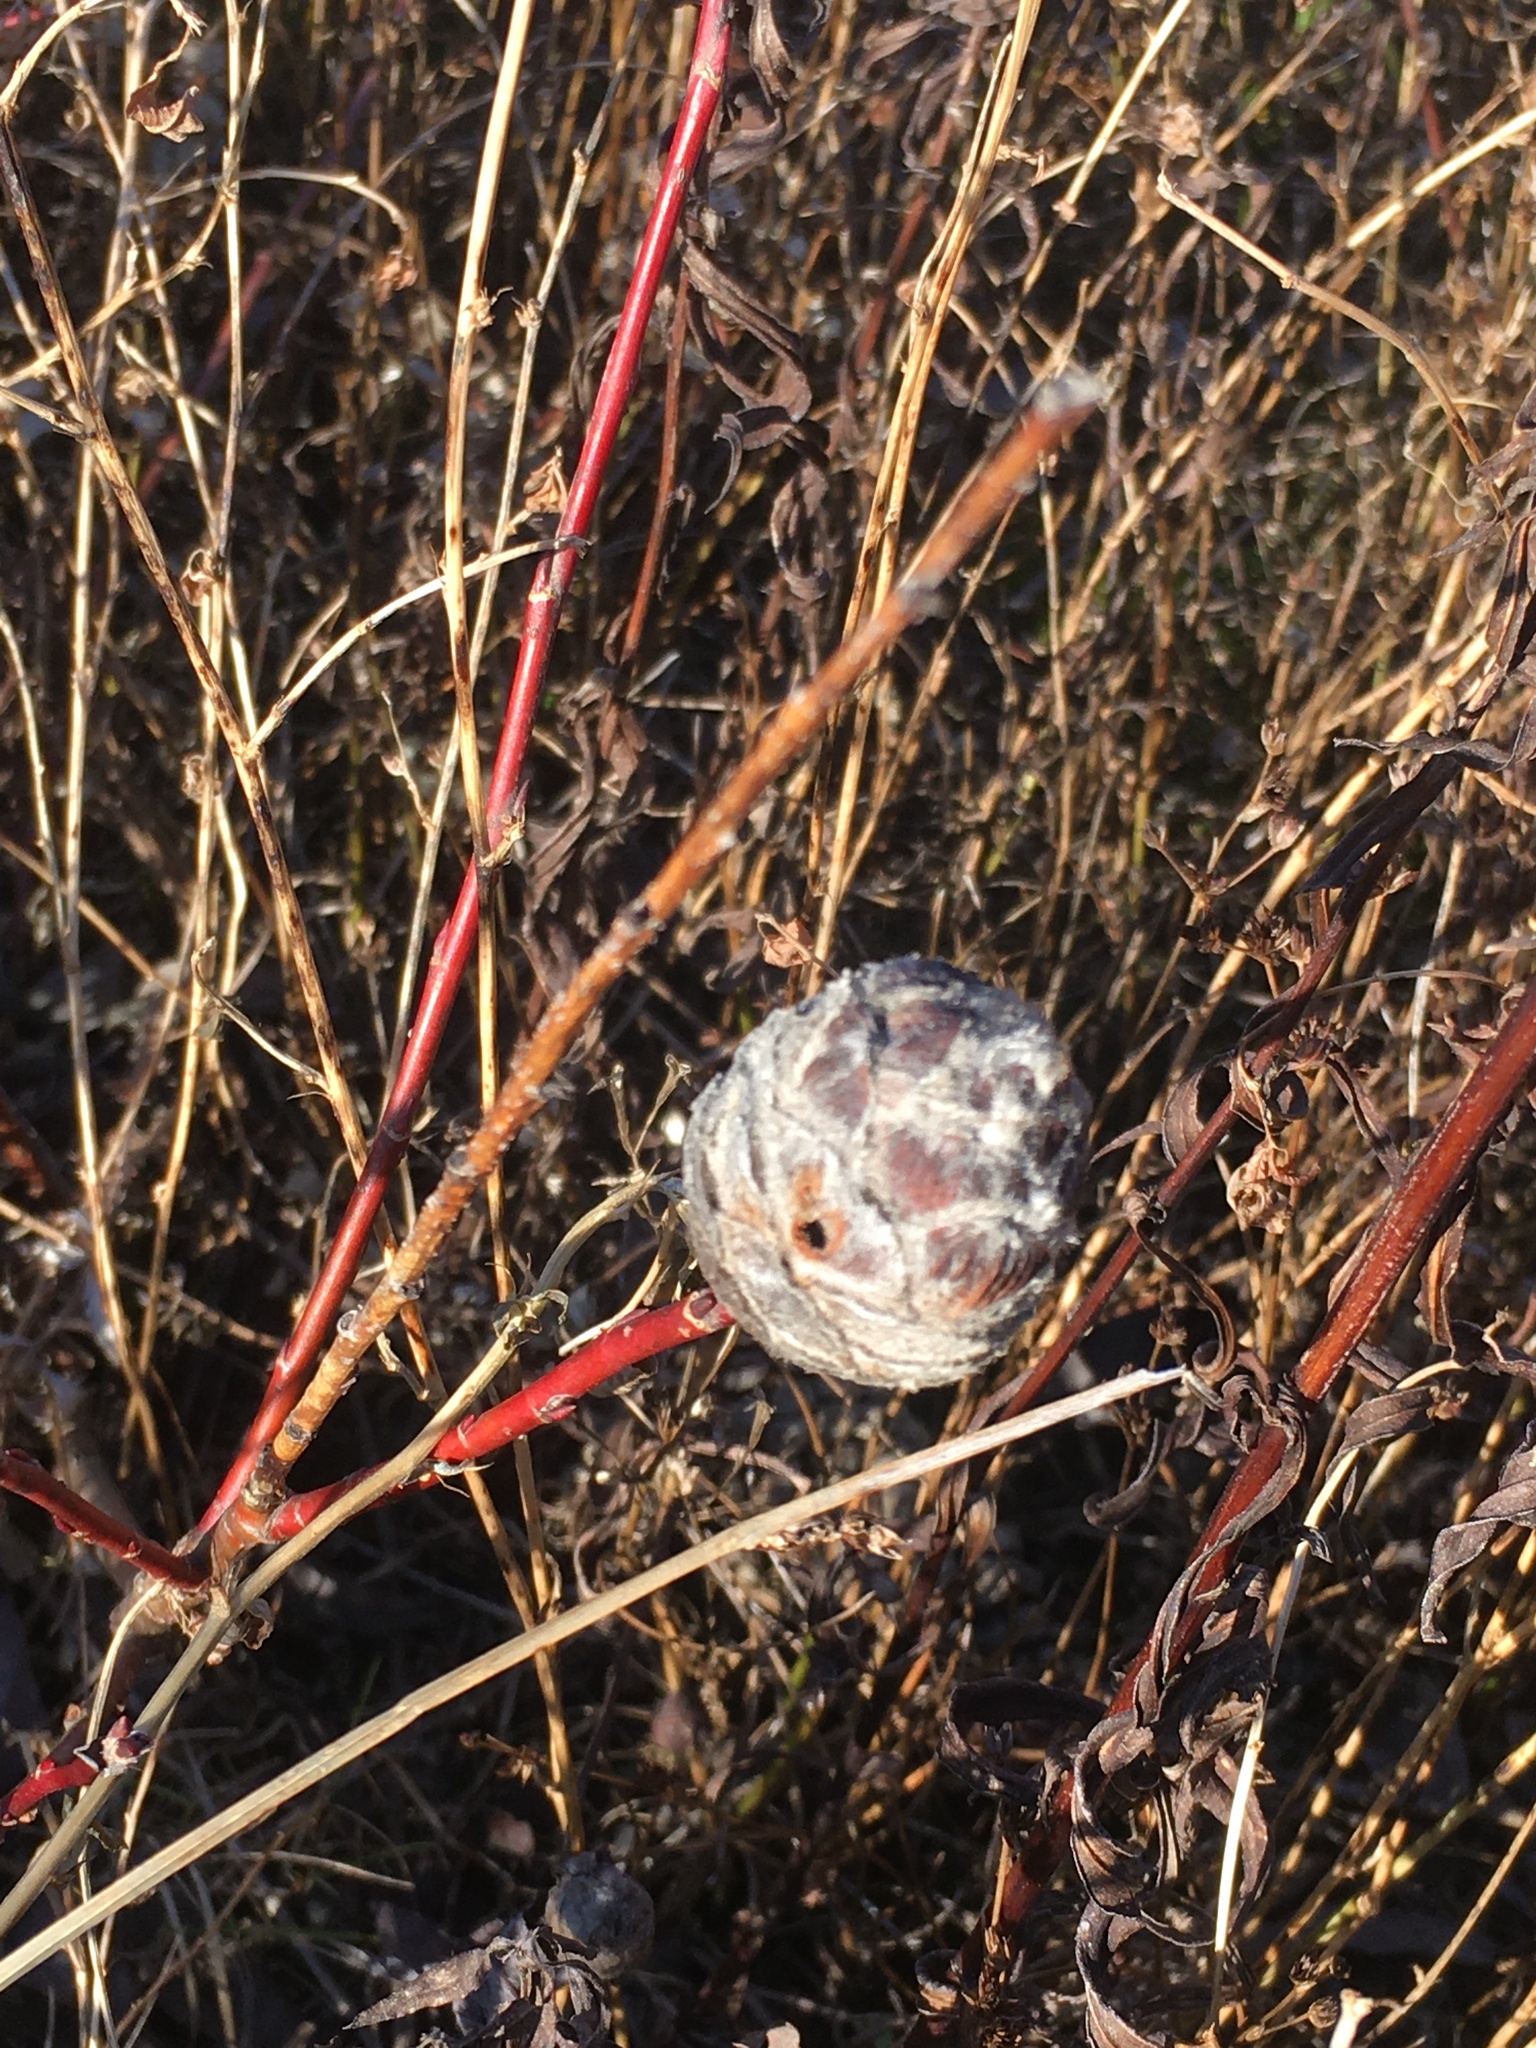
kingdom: Animalia
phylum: Arthropoda
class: Insecta
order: Diptera
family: Cecidomyiidae
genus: Rabdophaga
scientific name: Rabdophaga strobiloides
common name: Willow pinecone gall midge
